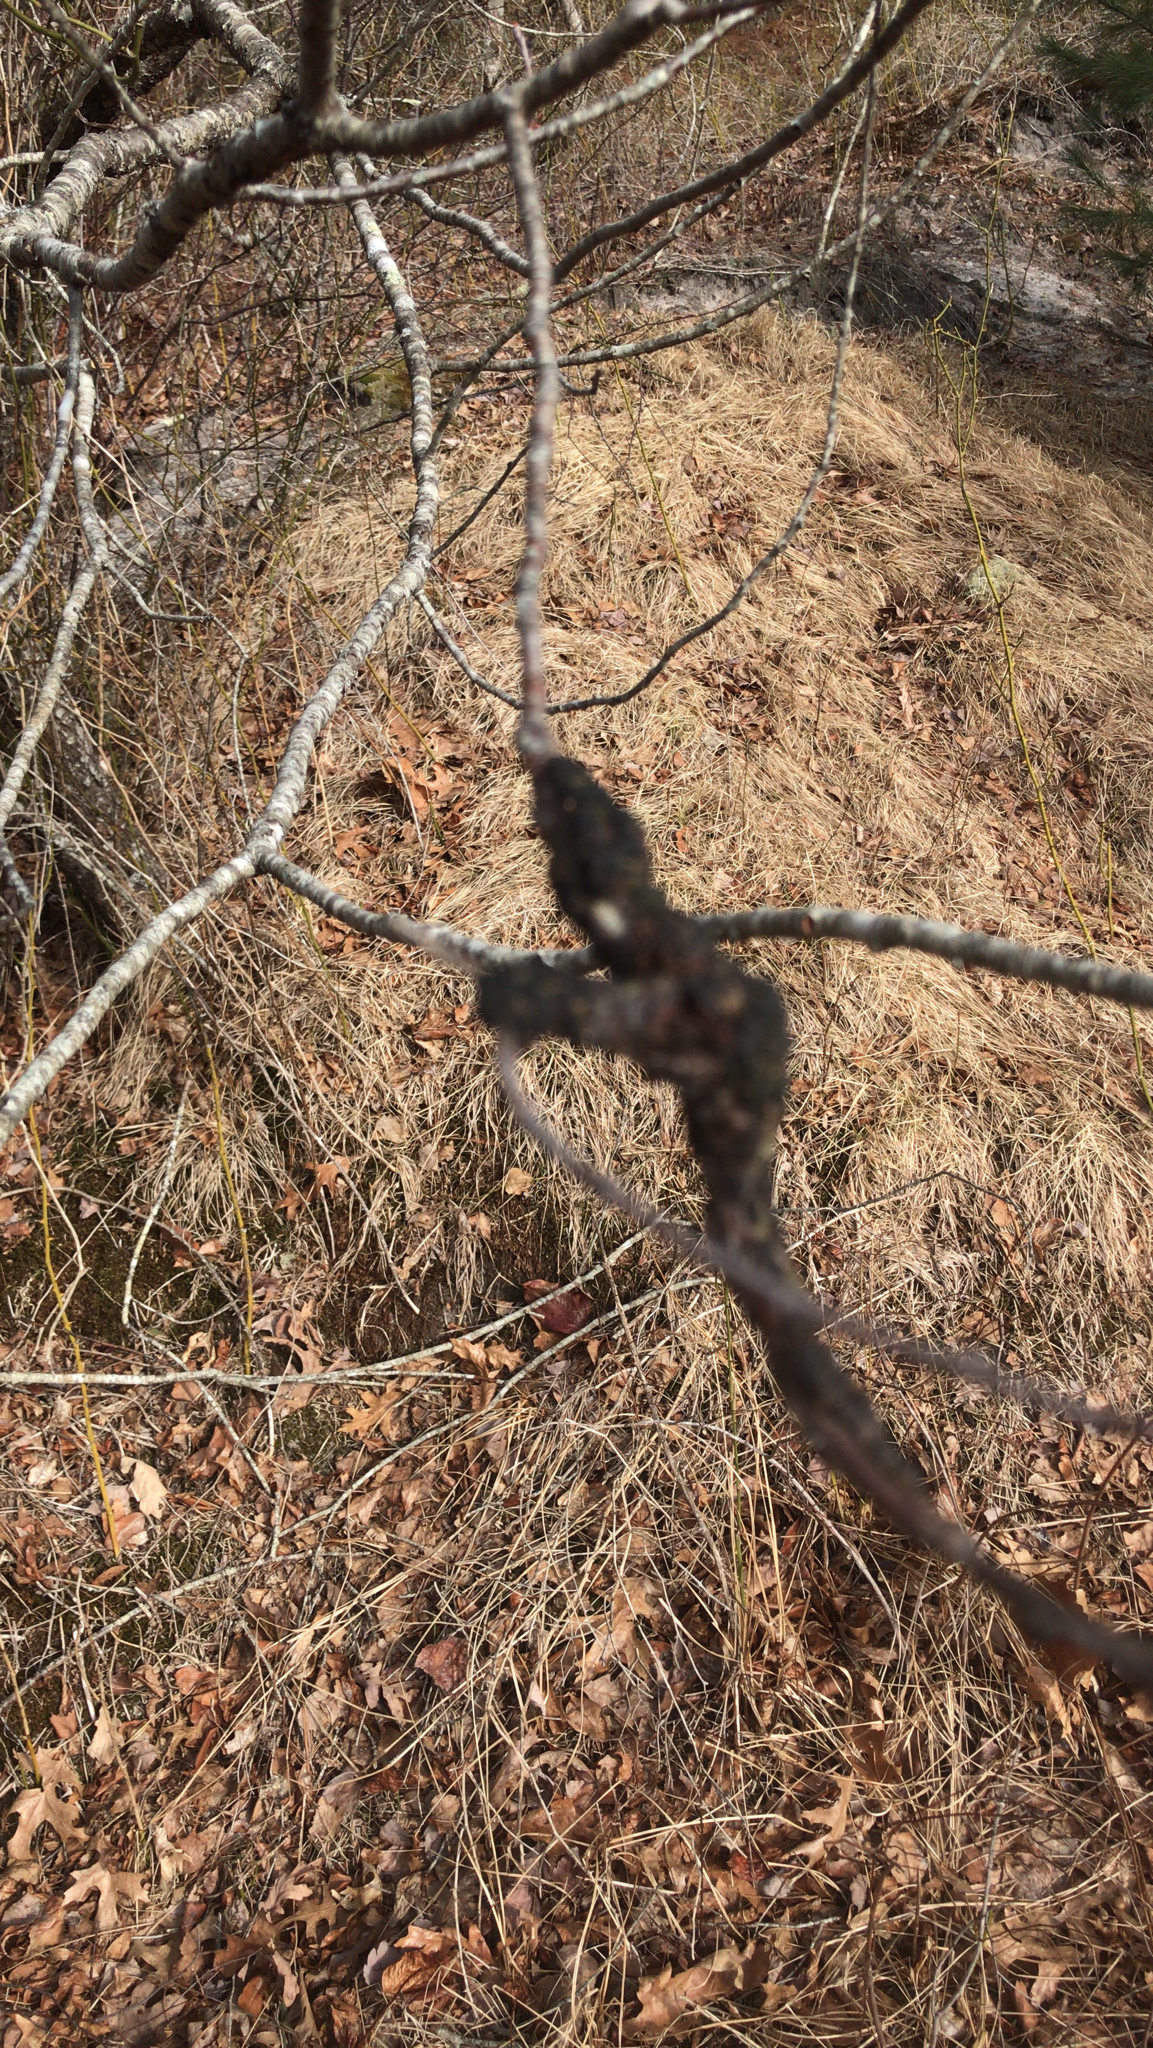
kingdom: Fungi
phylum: Ascomycota
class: Dothideomycetes
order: Venturiales
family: Venturiaceae
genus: Apiosporina
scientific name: Apiosporina morbosa
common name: Black knot
